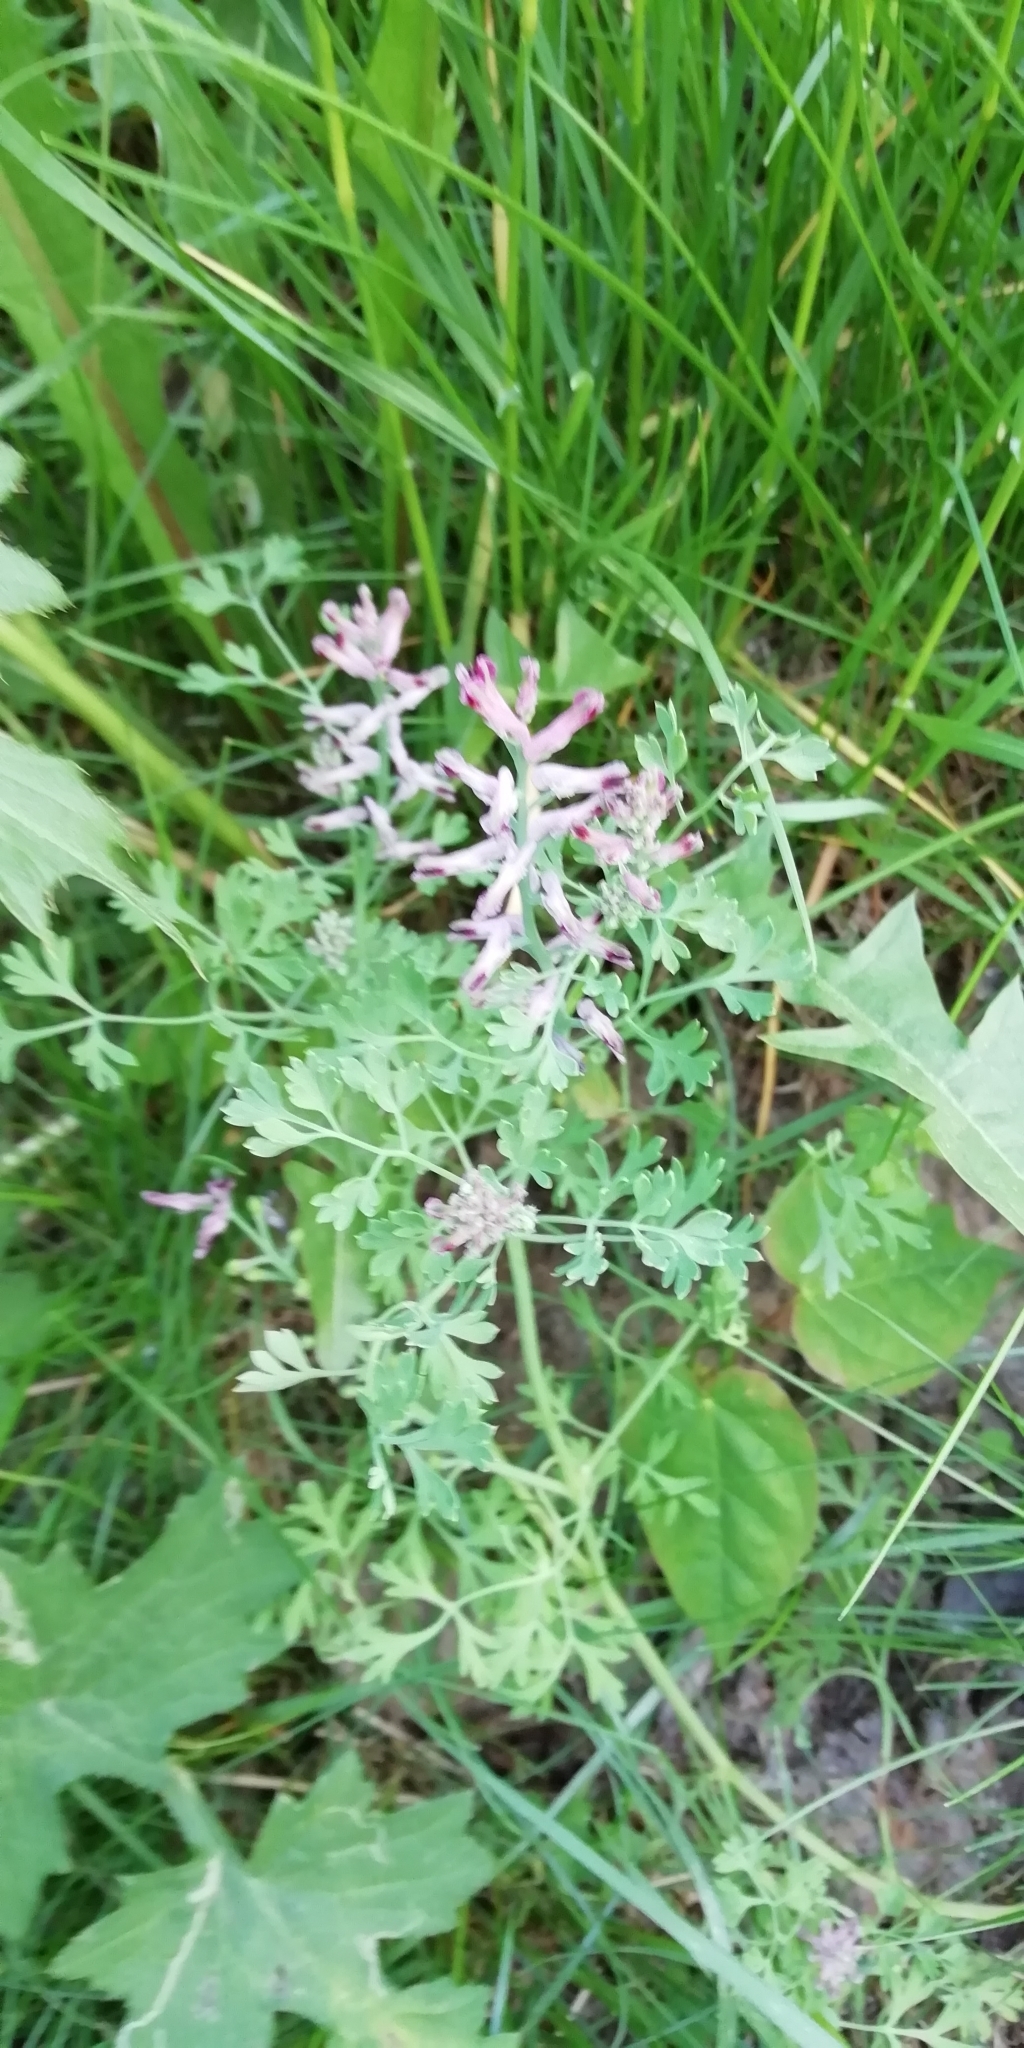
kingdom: Plantae
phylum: Tracheophyta
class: Magnoliopsida
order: Ranunculales
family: Papaveraceae
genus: Fumaria
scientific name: Fumaria officinalis
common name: Common fumitory
